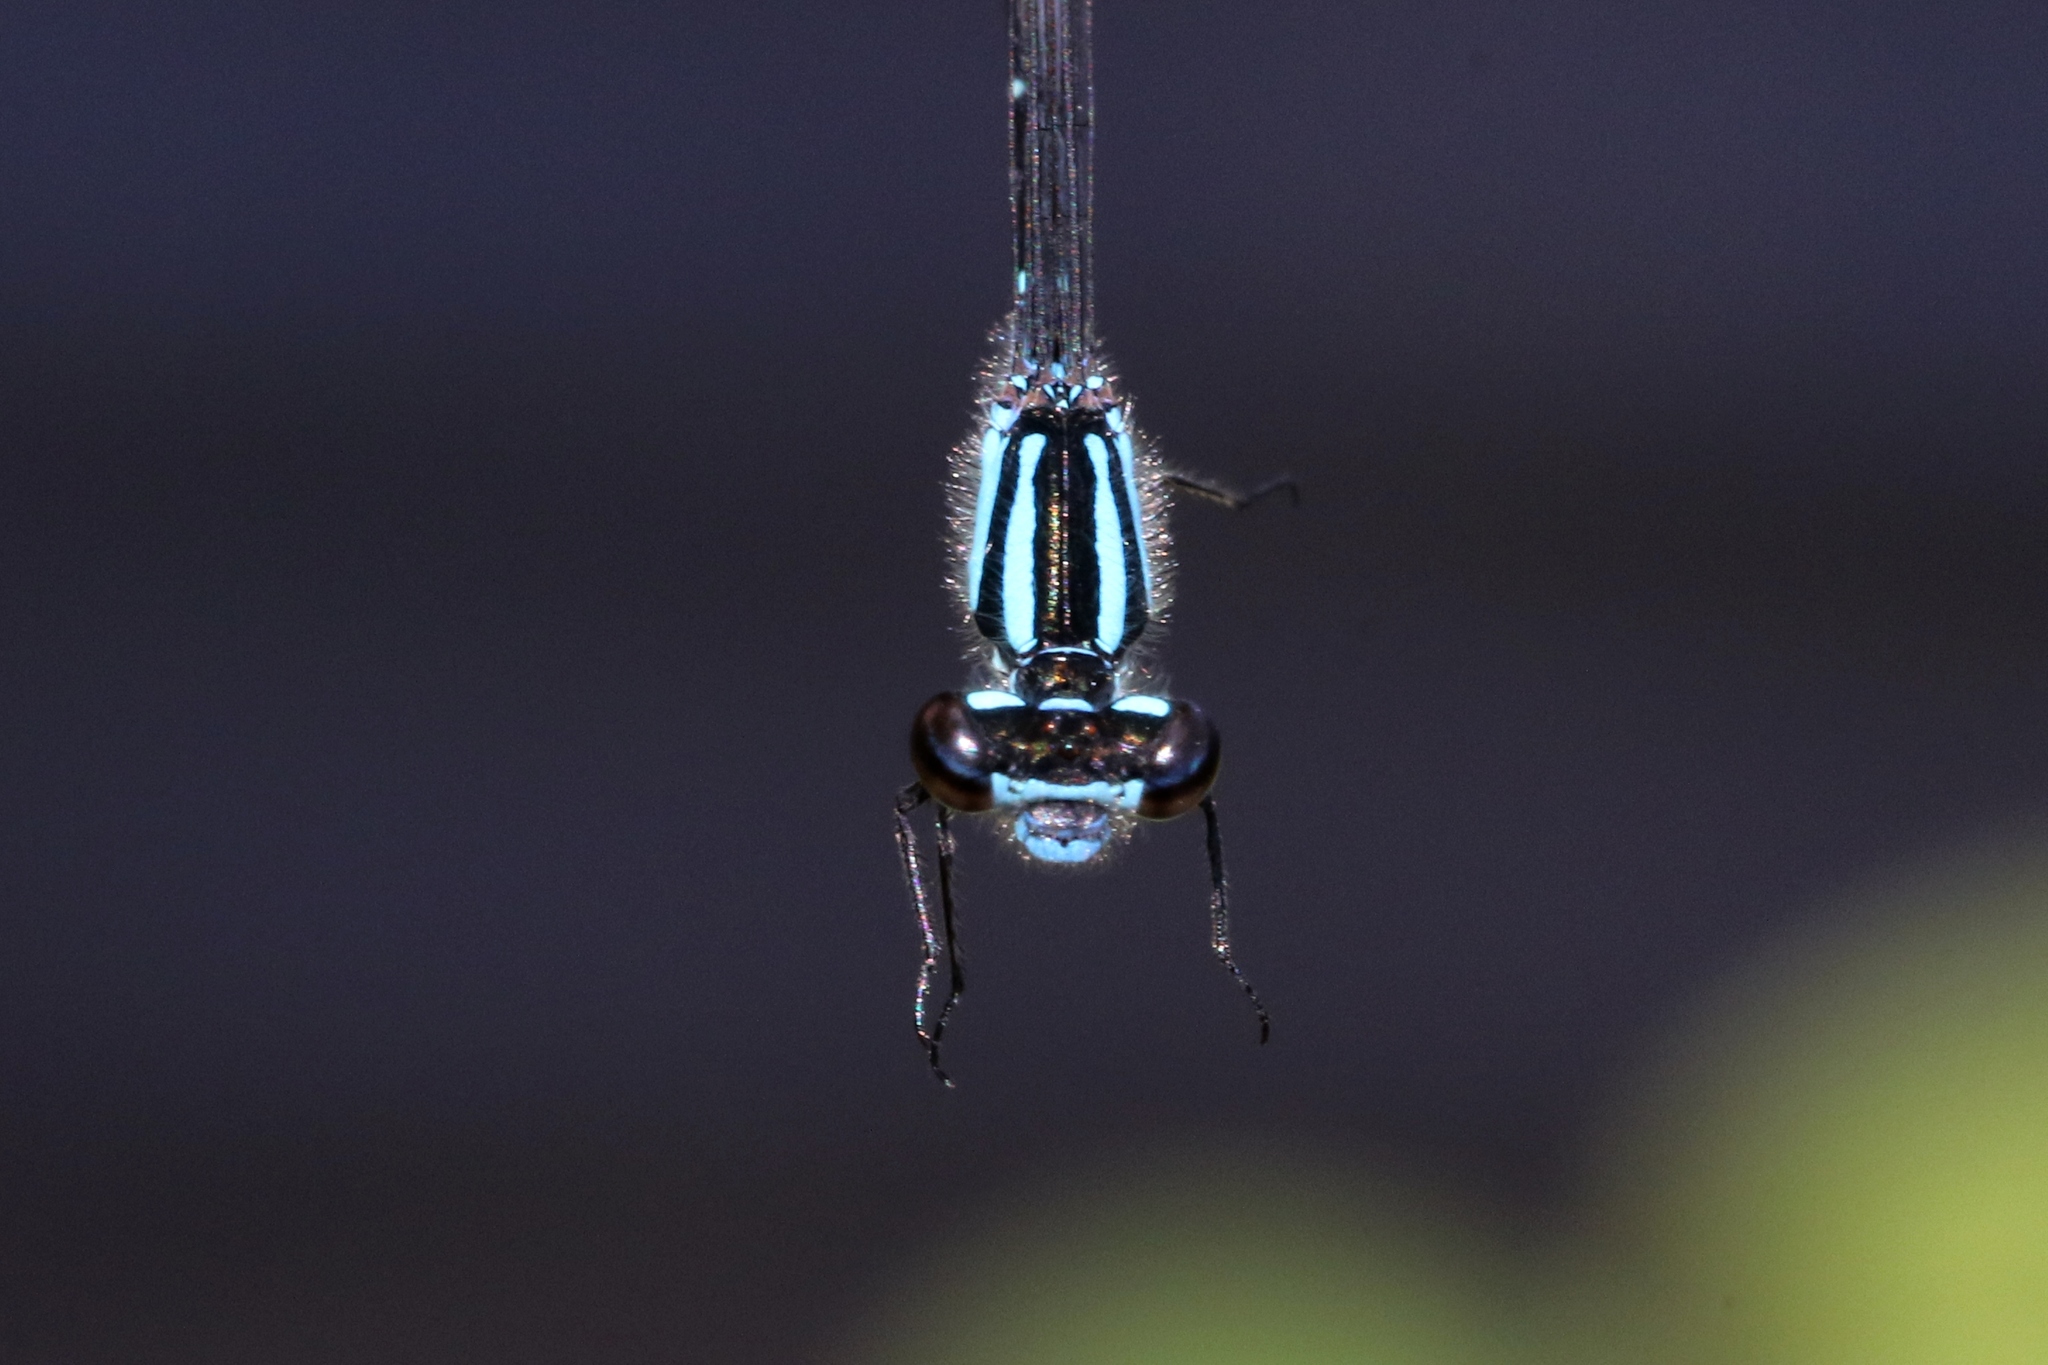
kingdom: Animalia
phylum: Arthropoda
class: Insecta
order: Odonata
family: Coenagrionidae
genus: Enallagma
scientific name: Enallagma geminatum
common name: Skimming bluet
